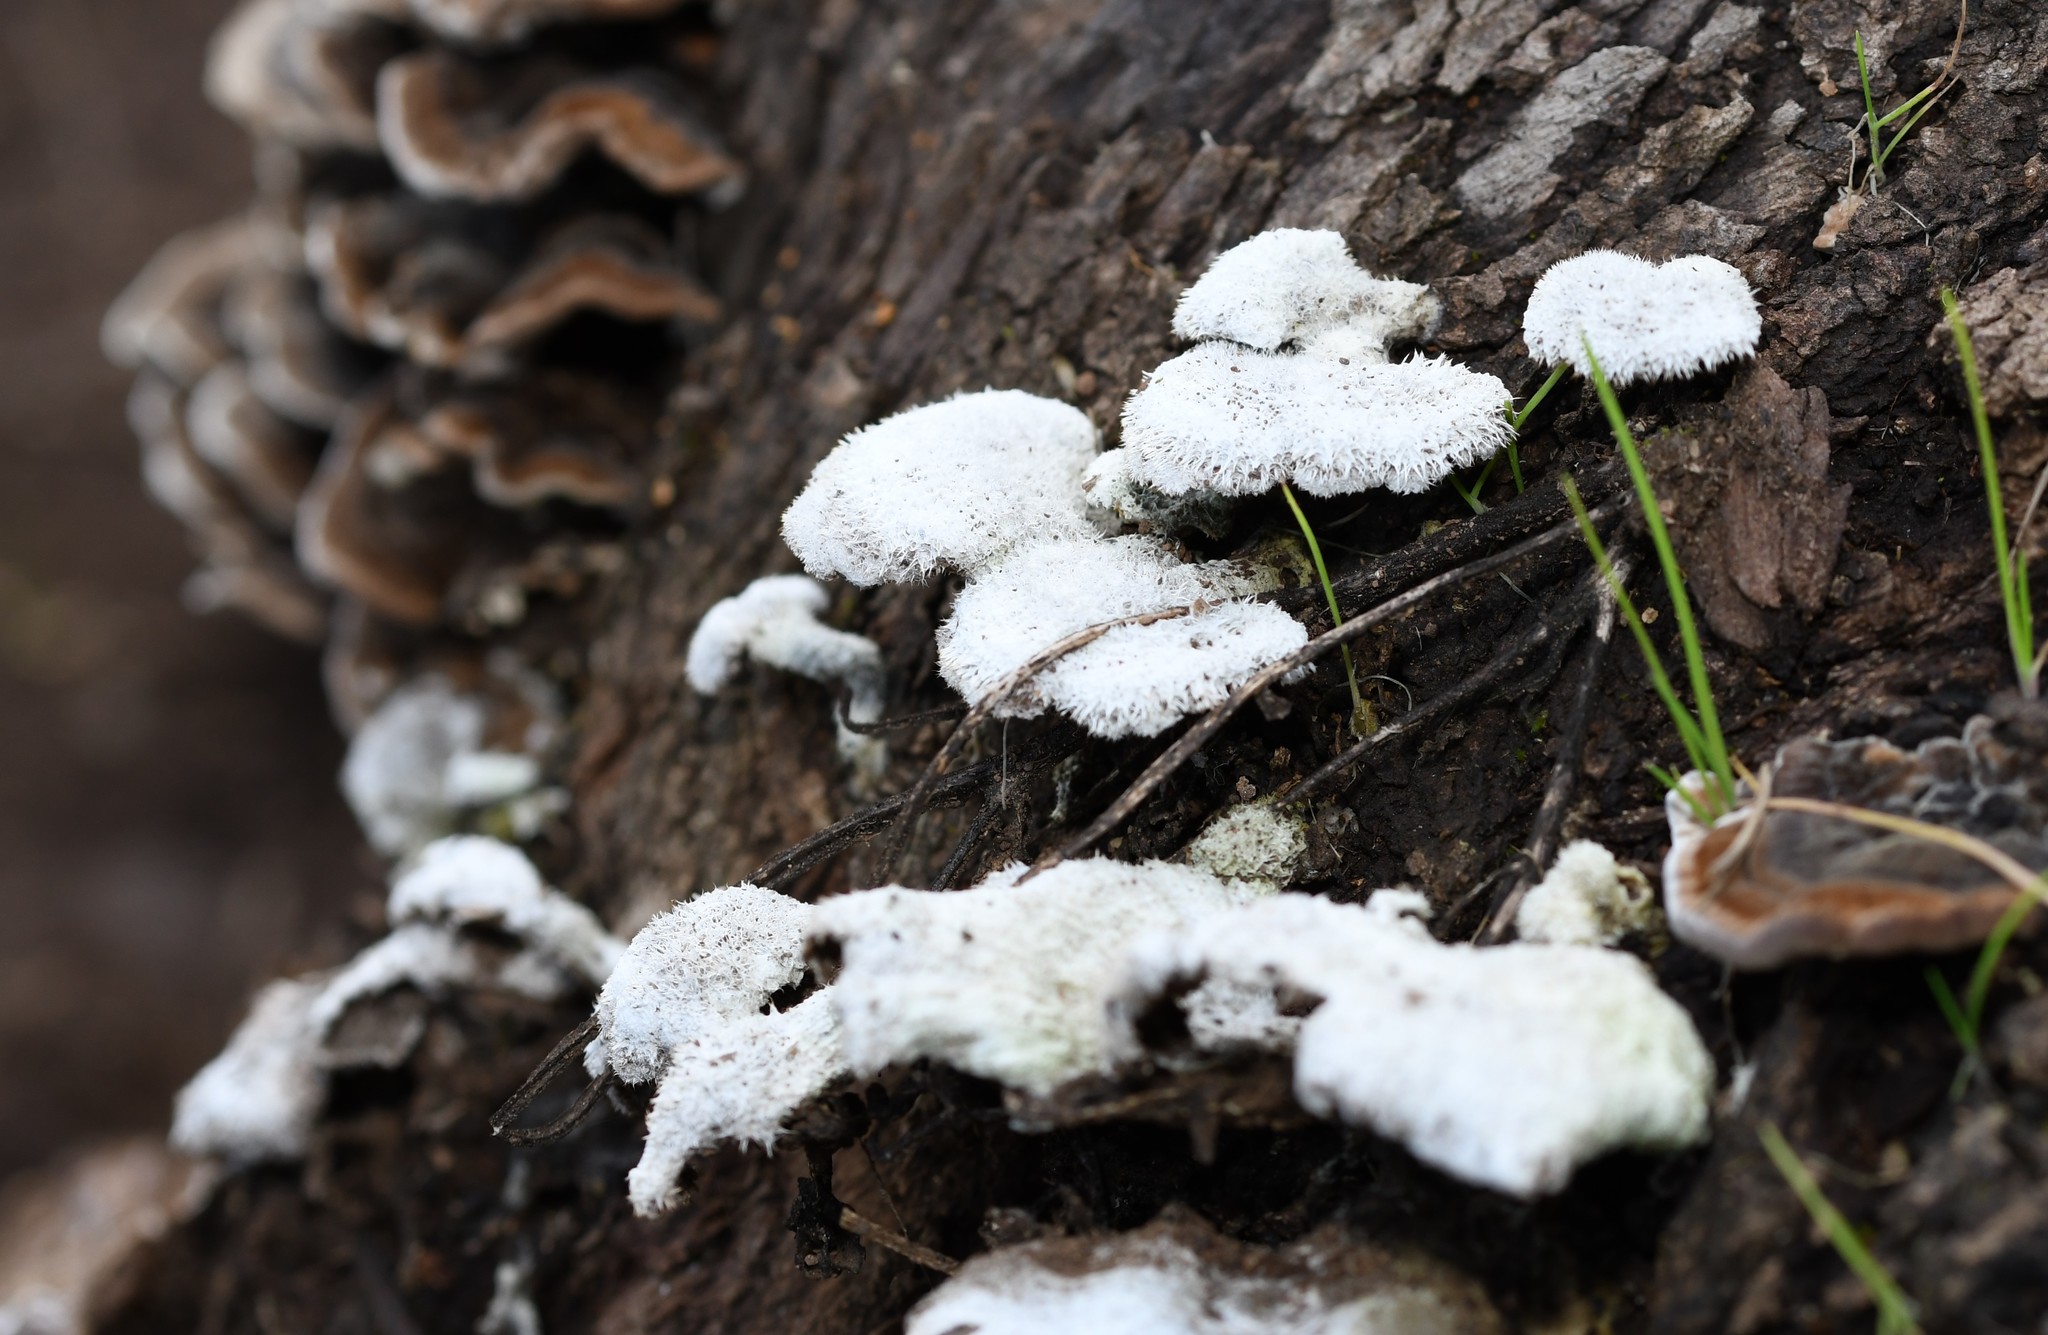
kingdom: Fungi
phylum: Basidiomycota
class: Agaricomycetes
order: Agaricales
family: Schizophyllaceae
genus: Schizophyllum
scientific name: Schizophyllum commune
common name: Common porecrust
